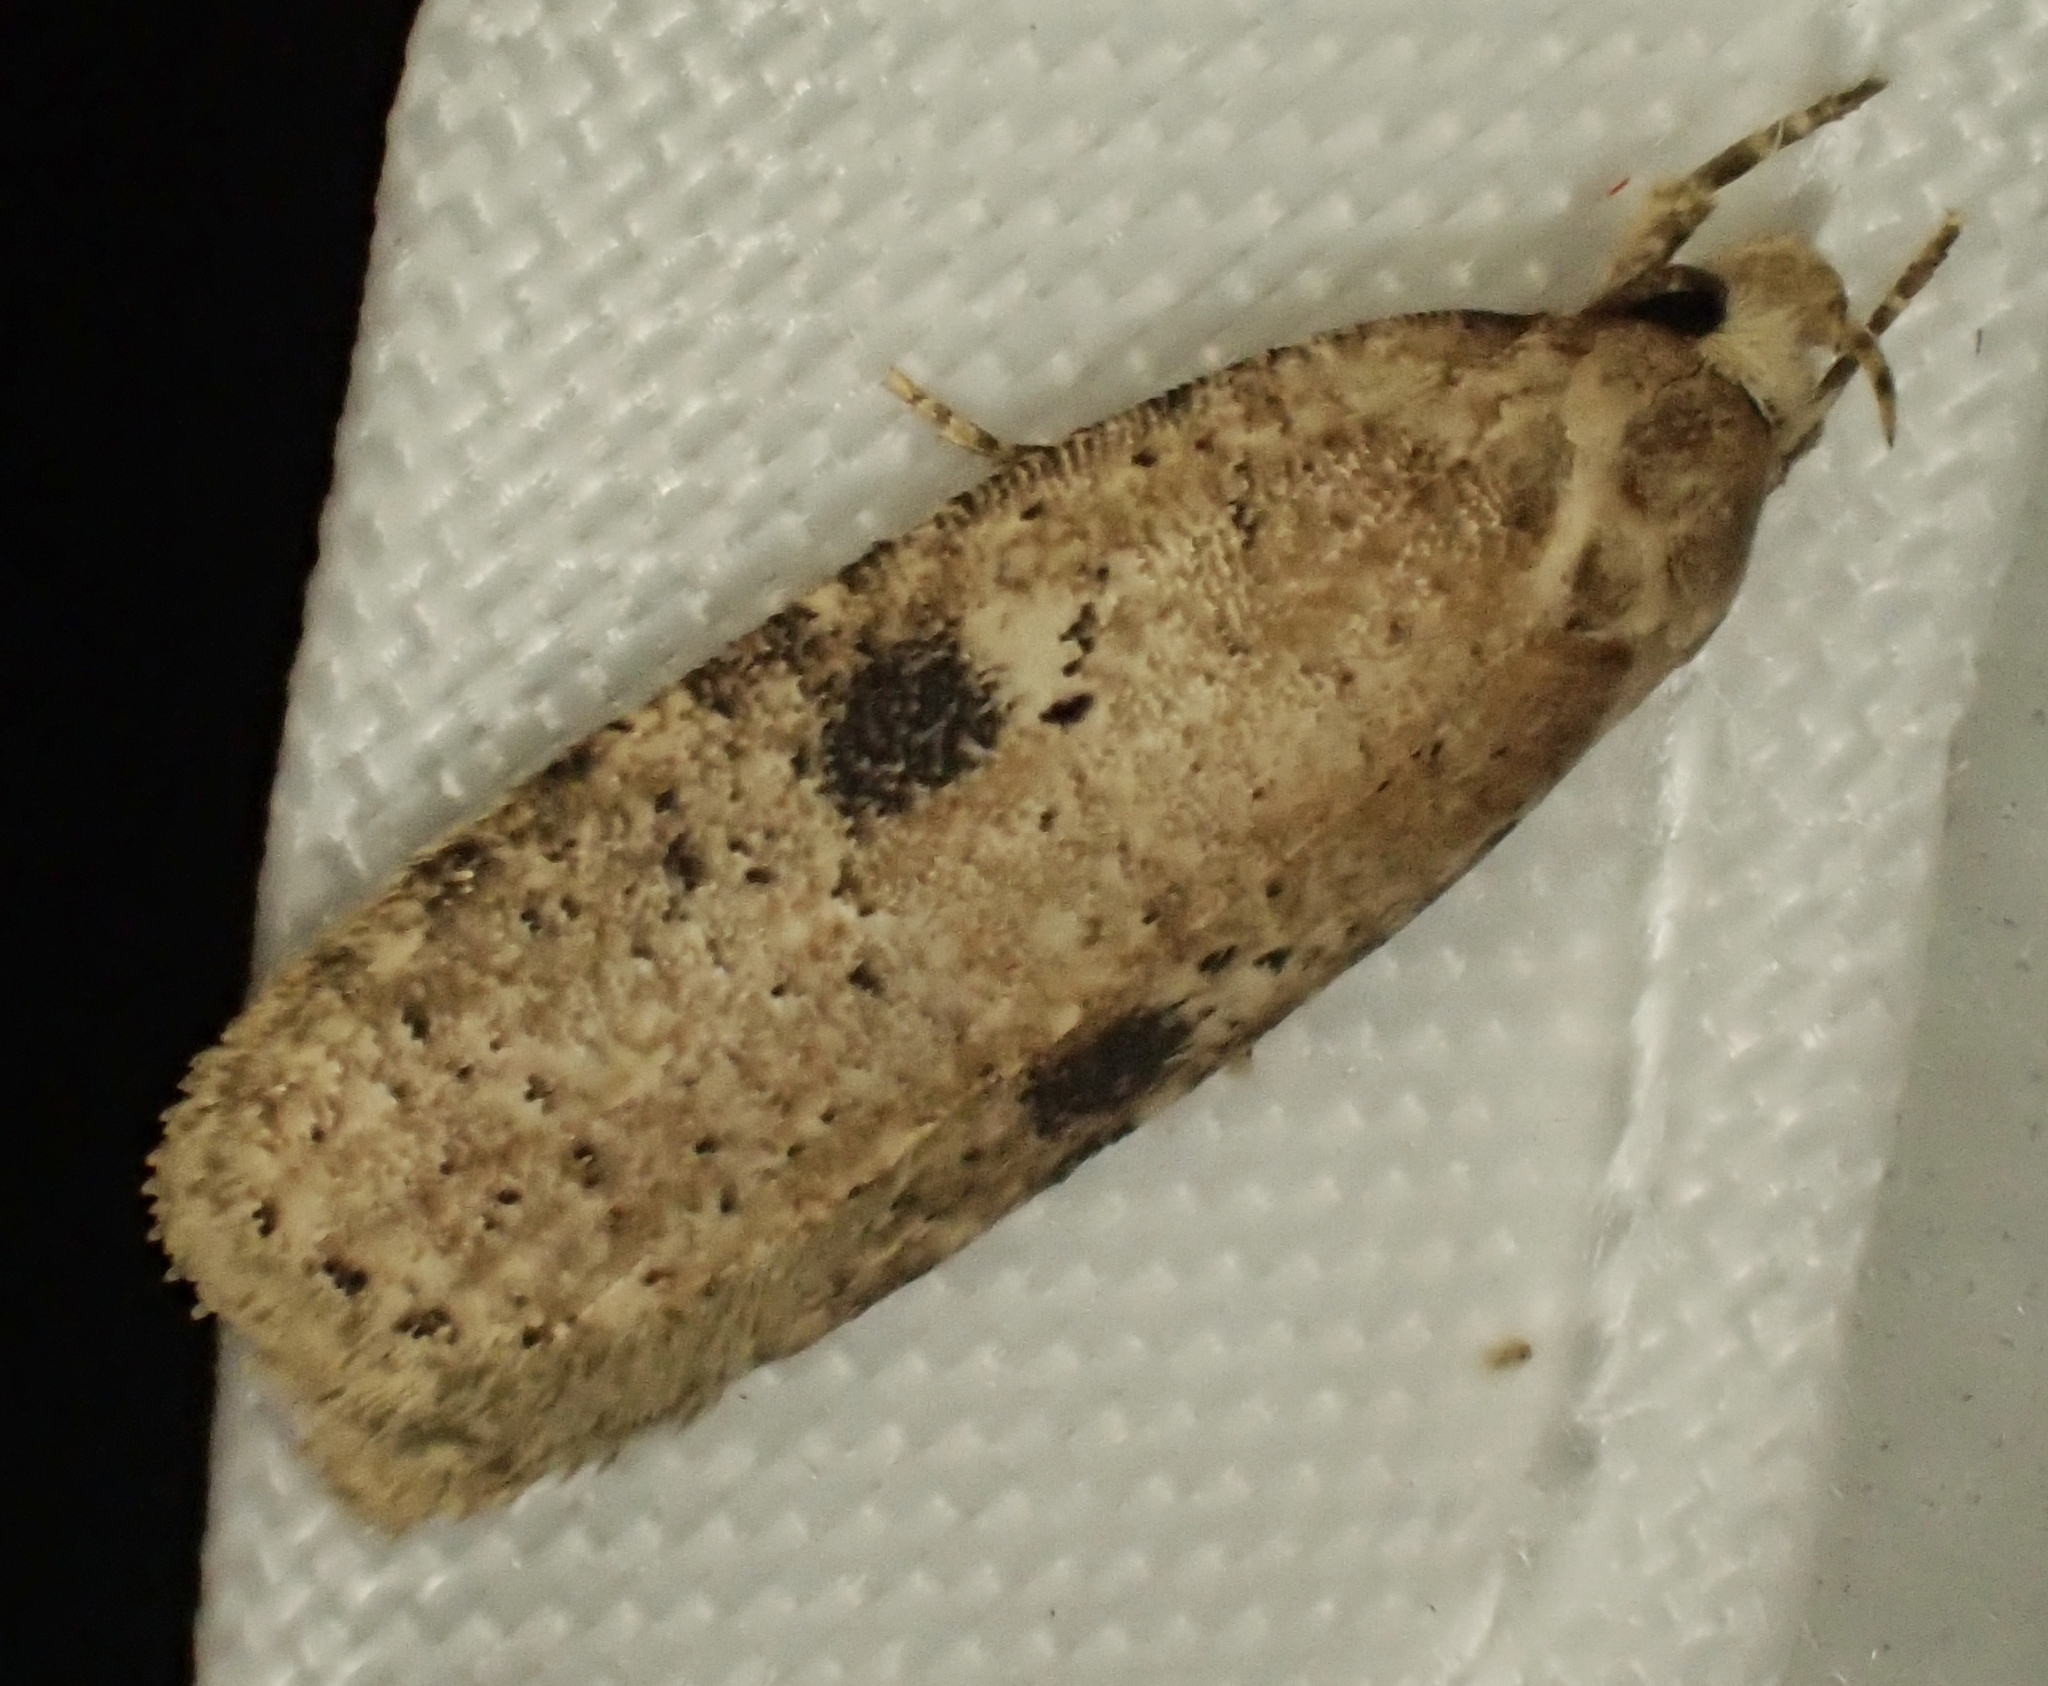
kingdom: Animalia
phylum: Arthropoda
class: Insecta
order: Lepidoptera
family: Depressariidae
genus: Agonopterix
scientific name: Agonopterix propinquella
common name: Black-spot flat-body
